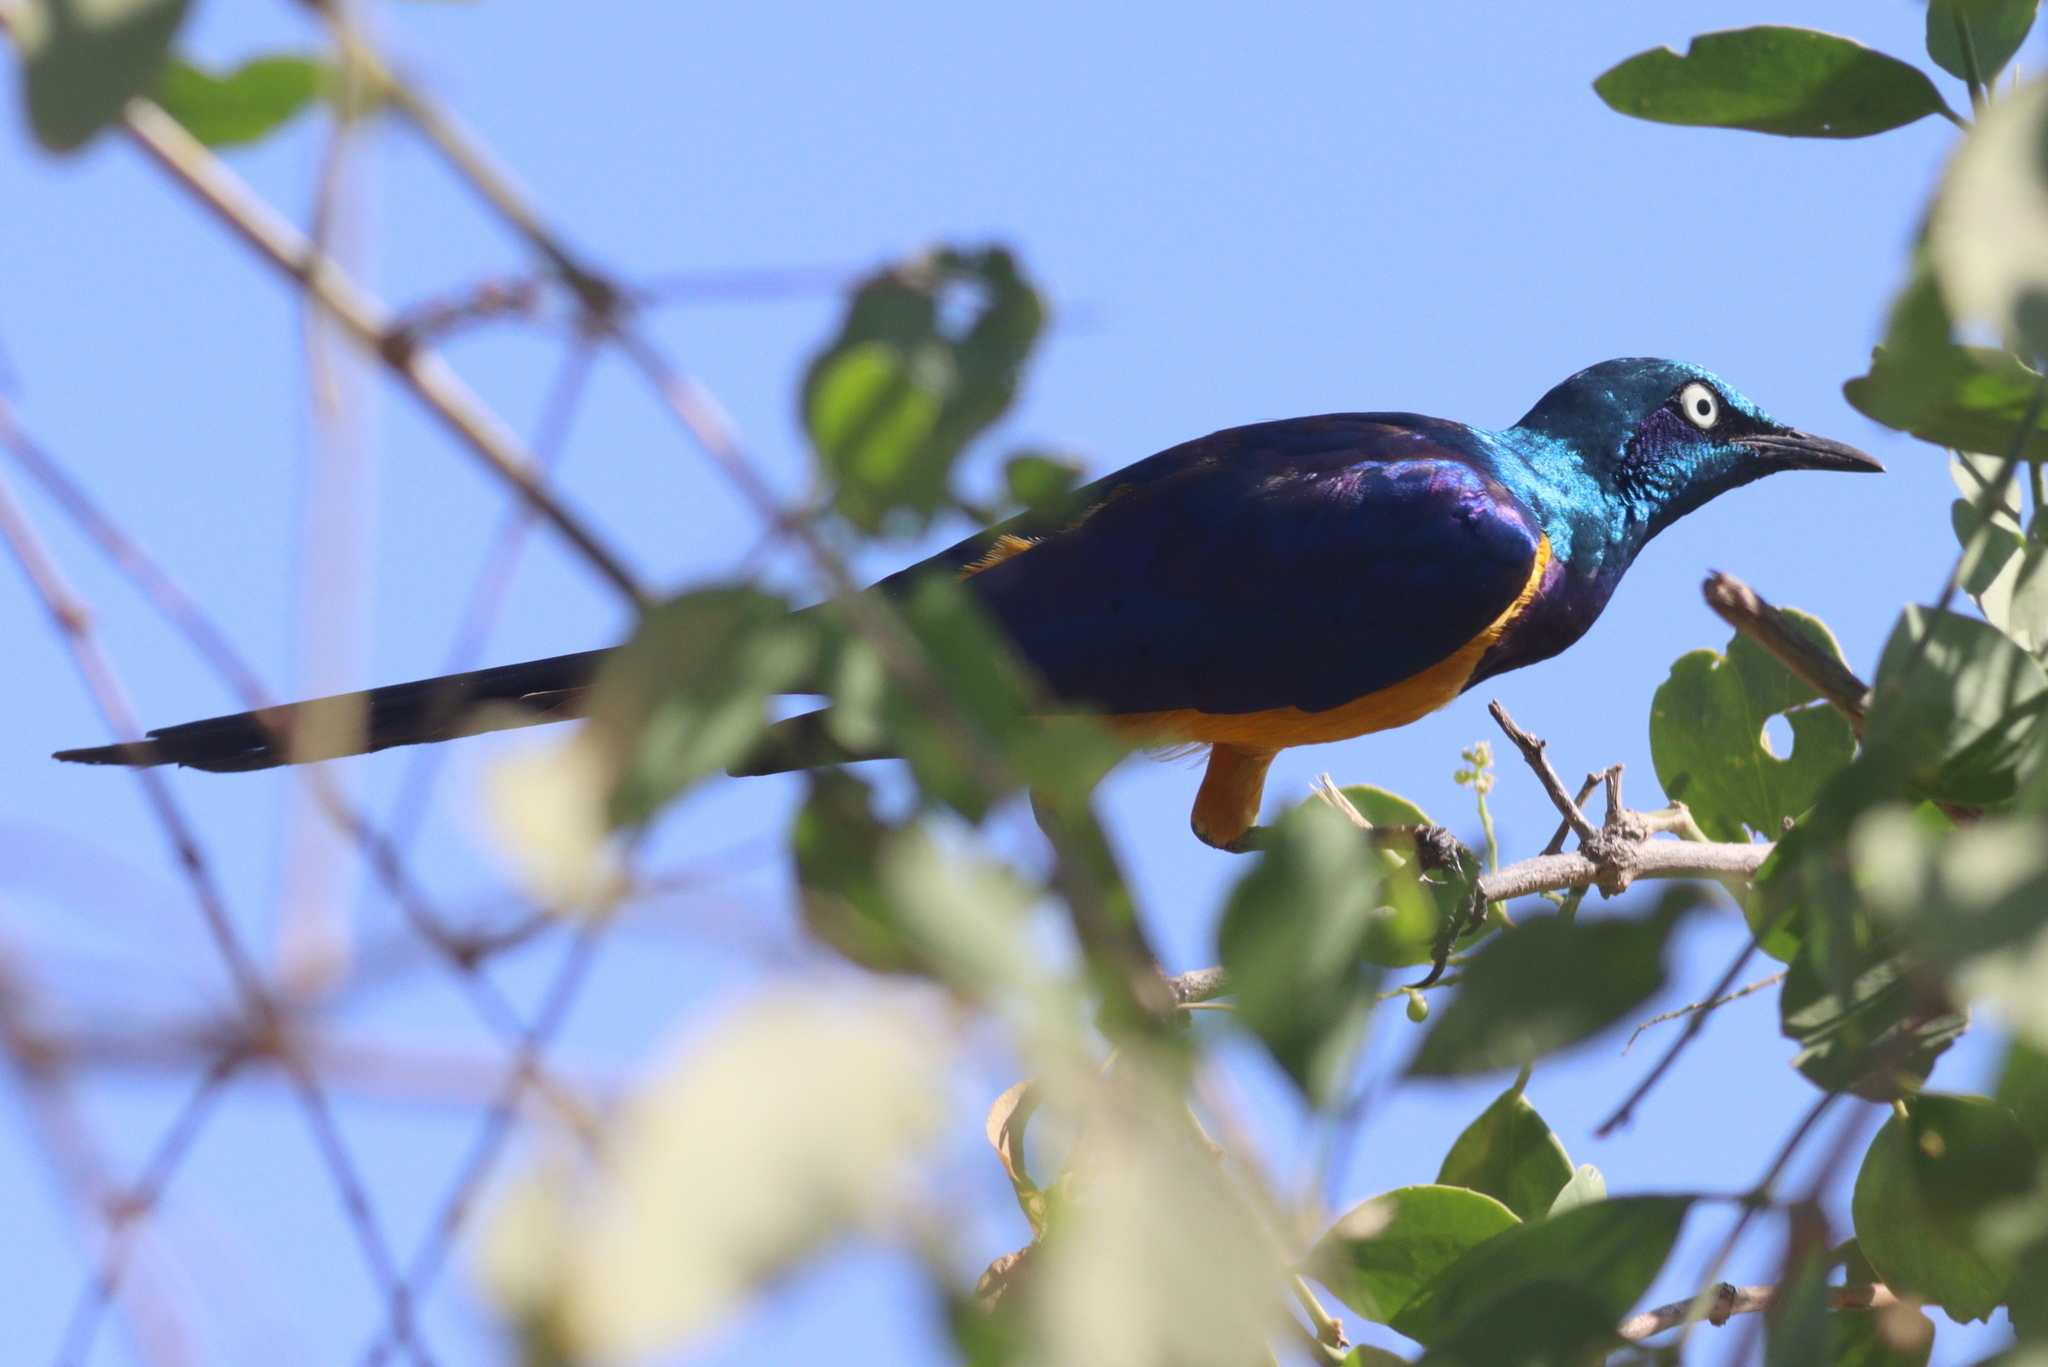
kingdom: Animalia
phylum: Chordata
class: Aves
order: Passeriformes
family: Sturnidae
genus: Lamprotornis
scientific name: Lamprotornis regius
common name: Golden-breasted starling
